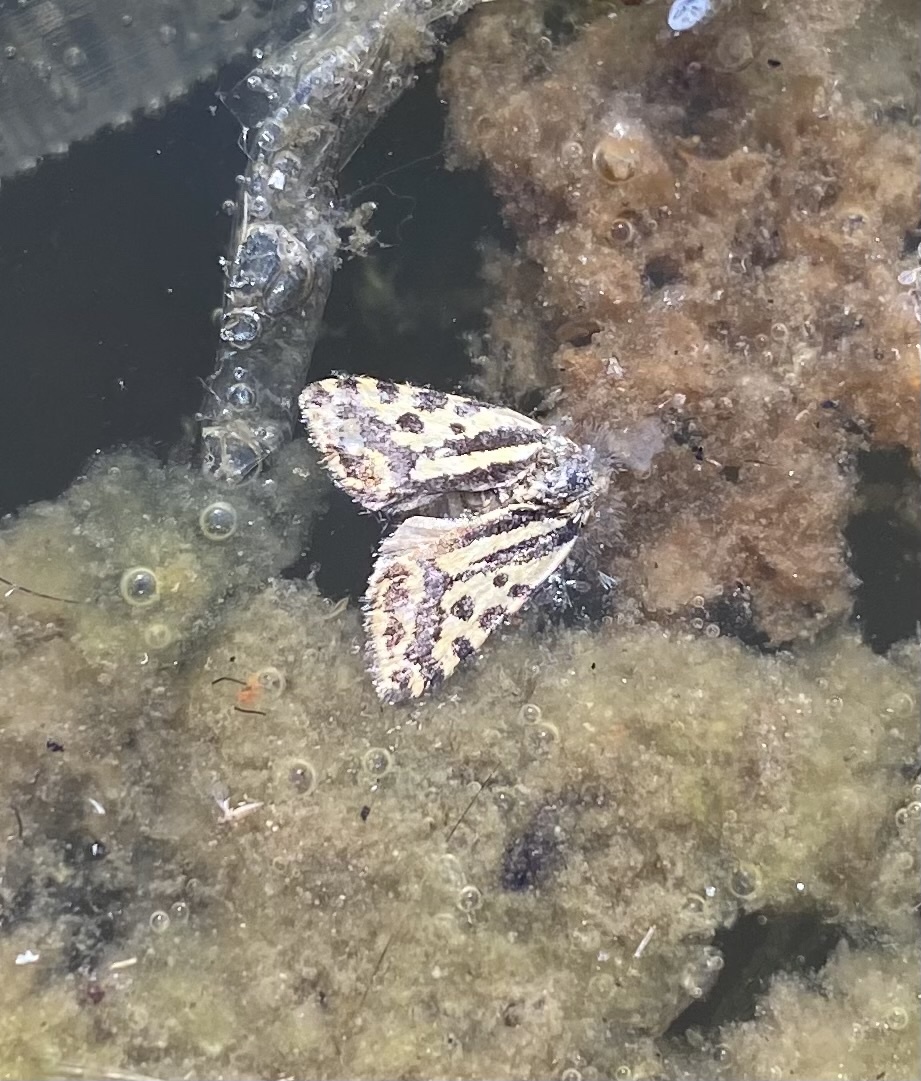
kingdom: Animalia
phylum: Arthropoda
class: Insecta
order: Lepidoptera
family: Noctuidae
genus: Acontia
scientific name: Acontia trabealis
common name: Spotted sulphur
